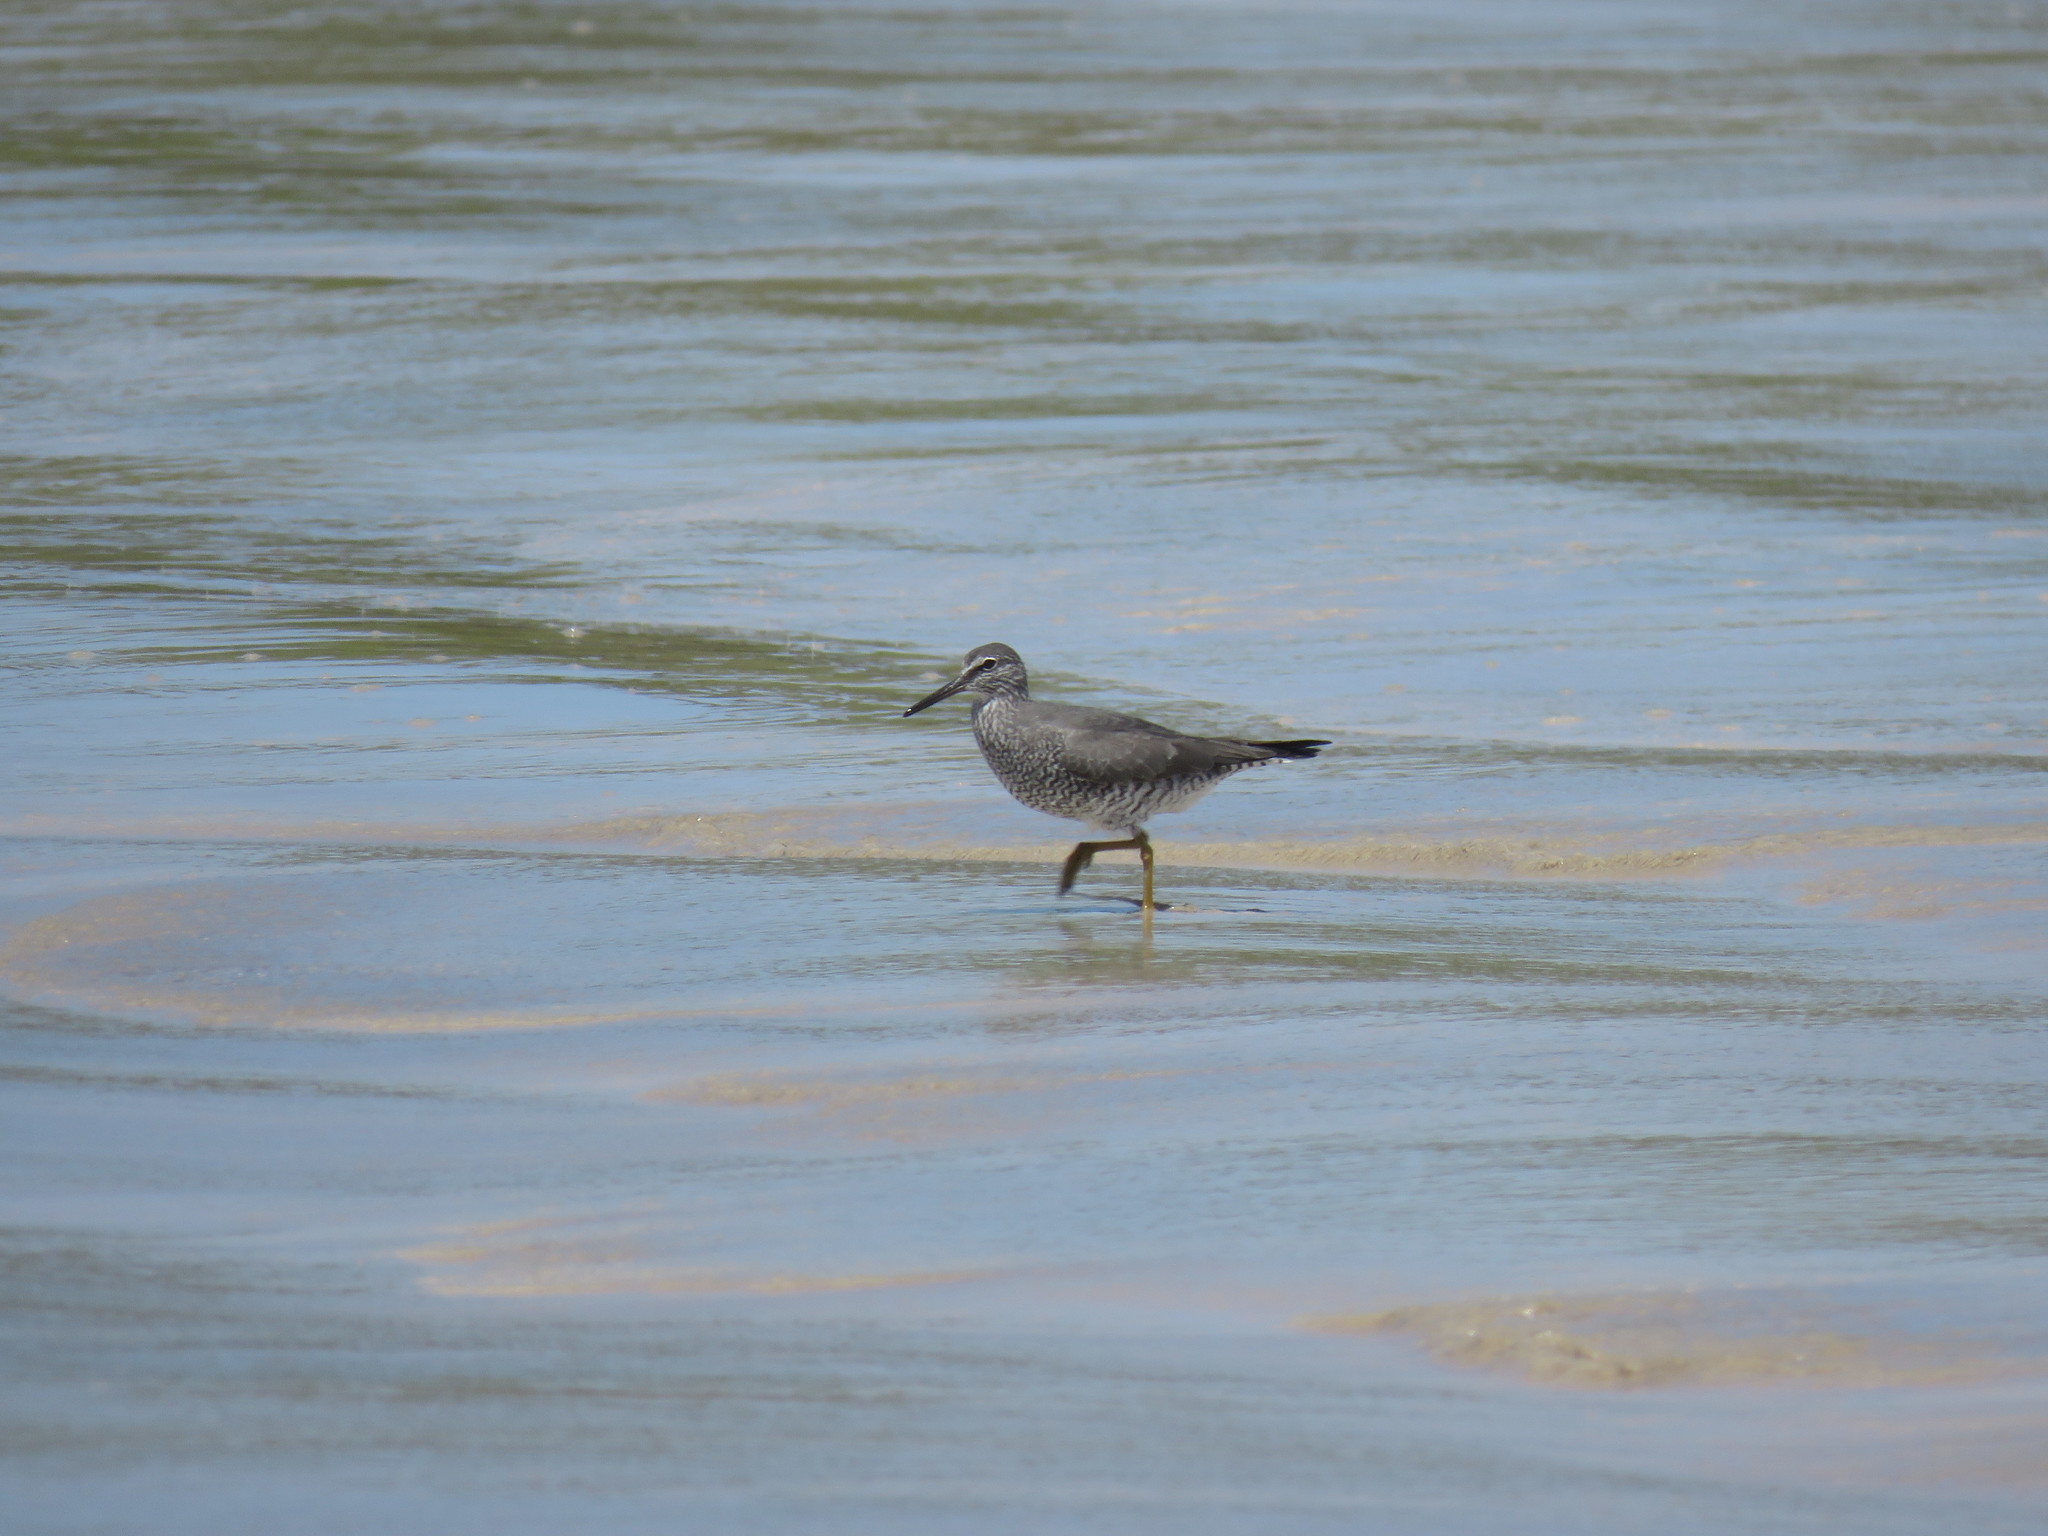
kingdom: Animalia
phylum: Chordata
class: Aves
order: Charadriiformes
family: Scolopacidae
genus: Tringa
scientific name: Tringa incana
